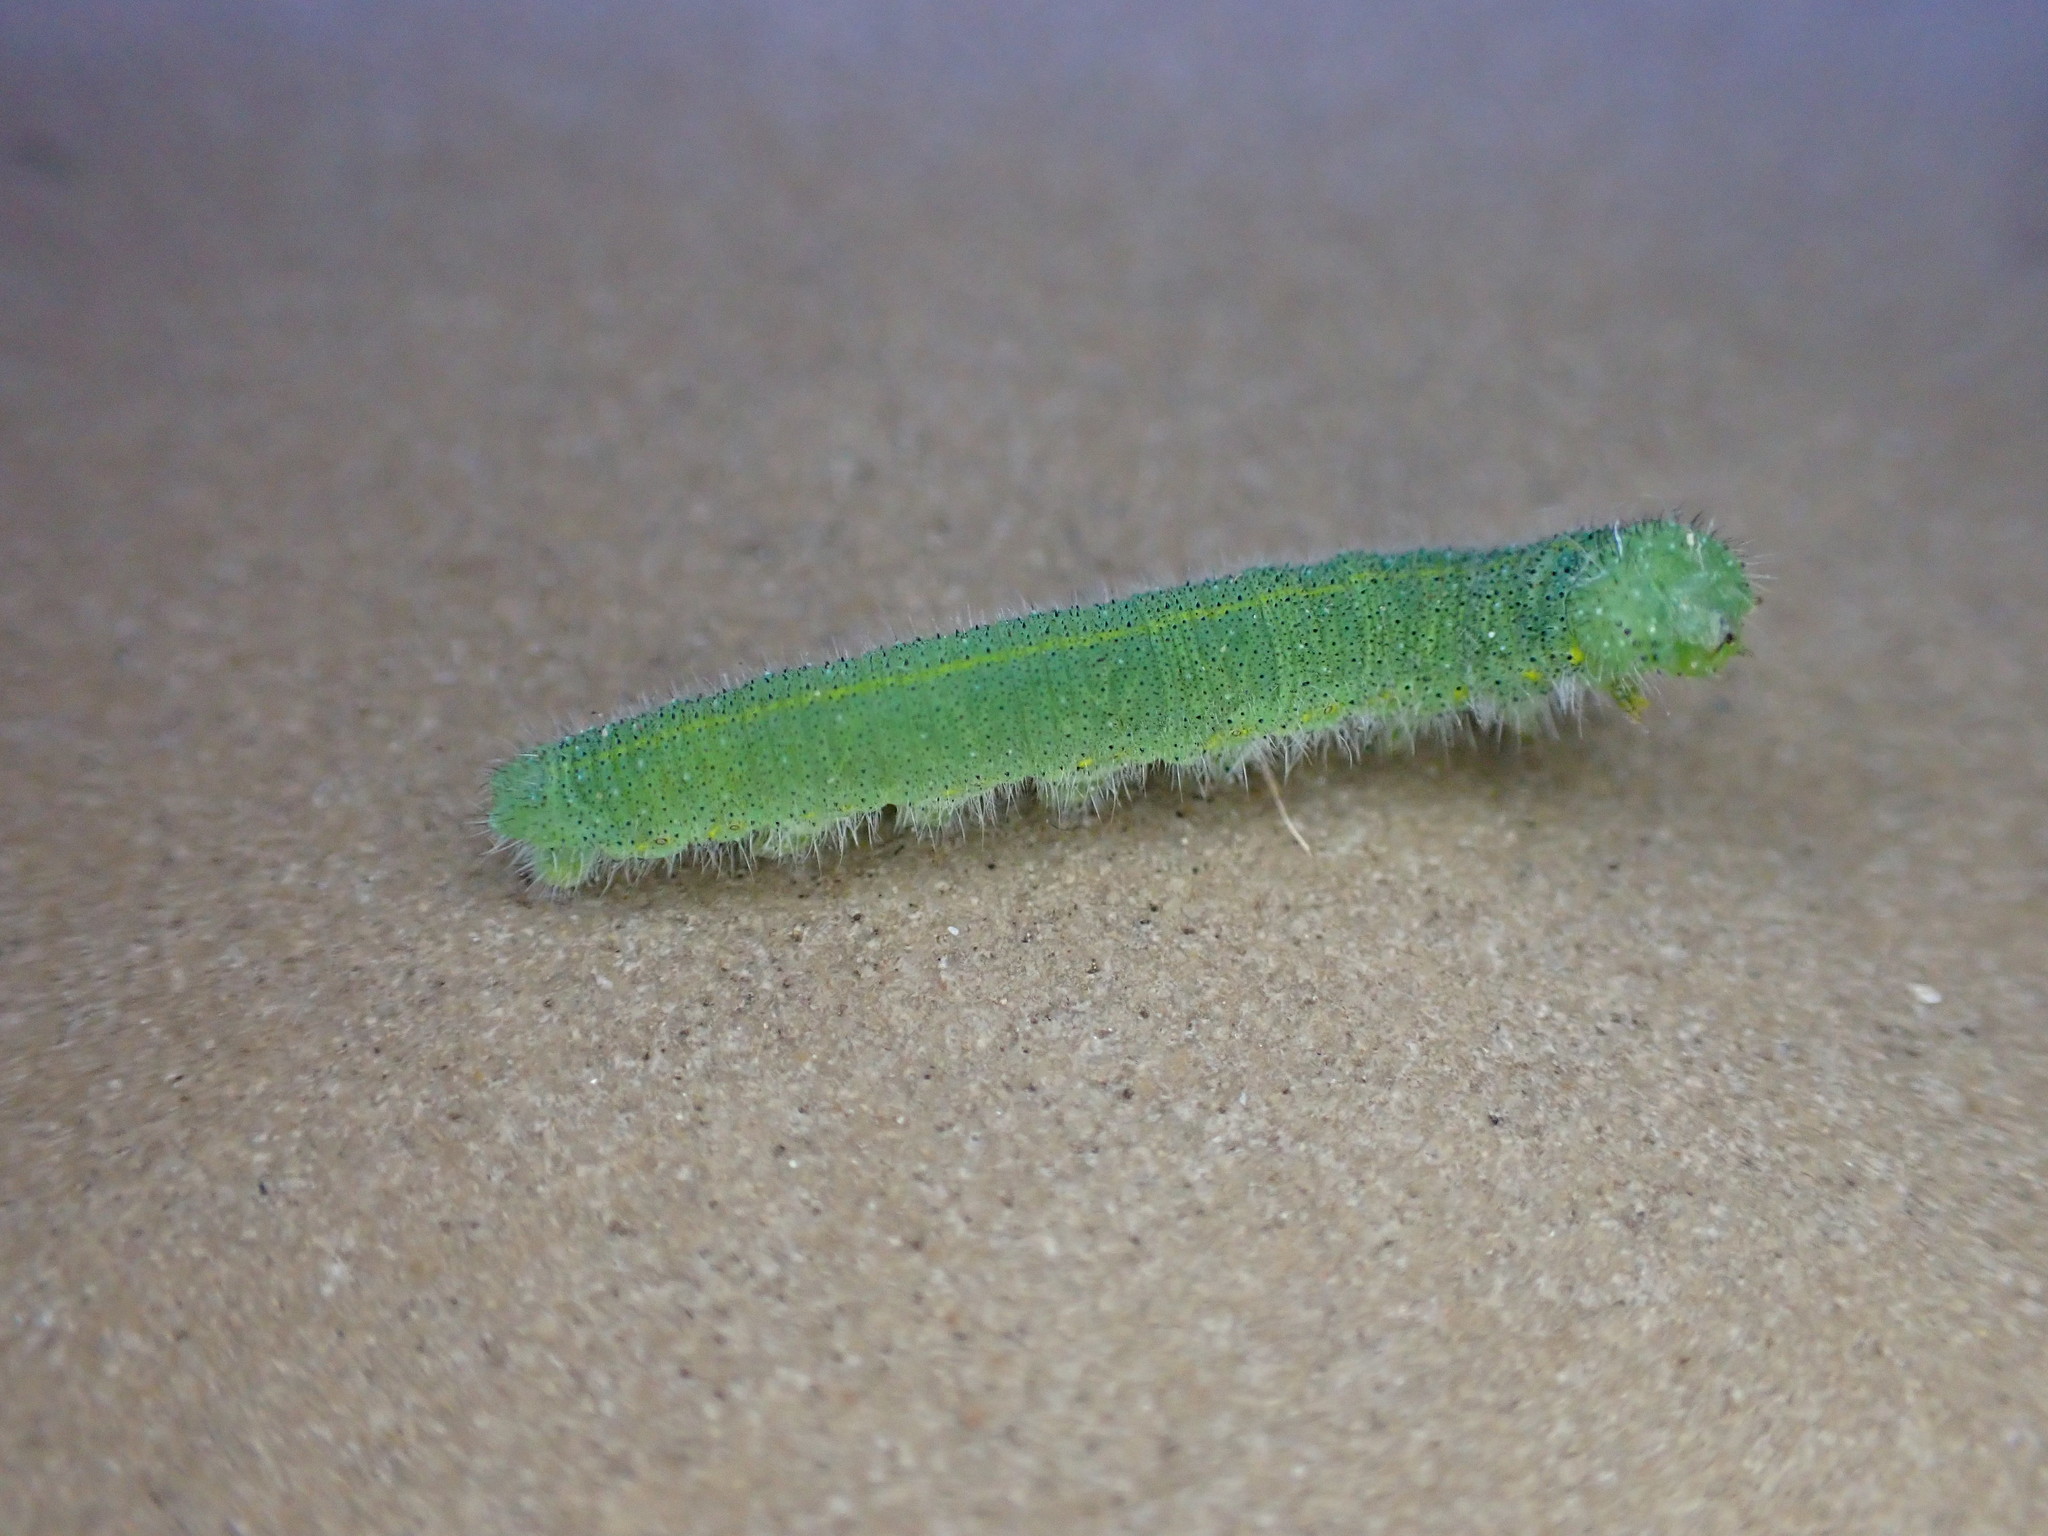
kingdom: Animalia
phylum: Arthropoda
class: Insecta
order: Lepidoptera
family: Pieridae
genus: Pieris
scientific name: Pieris rapae
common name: Small white
